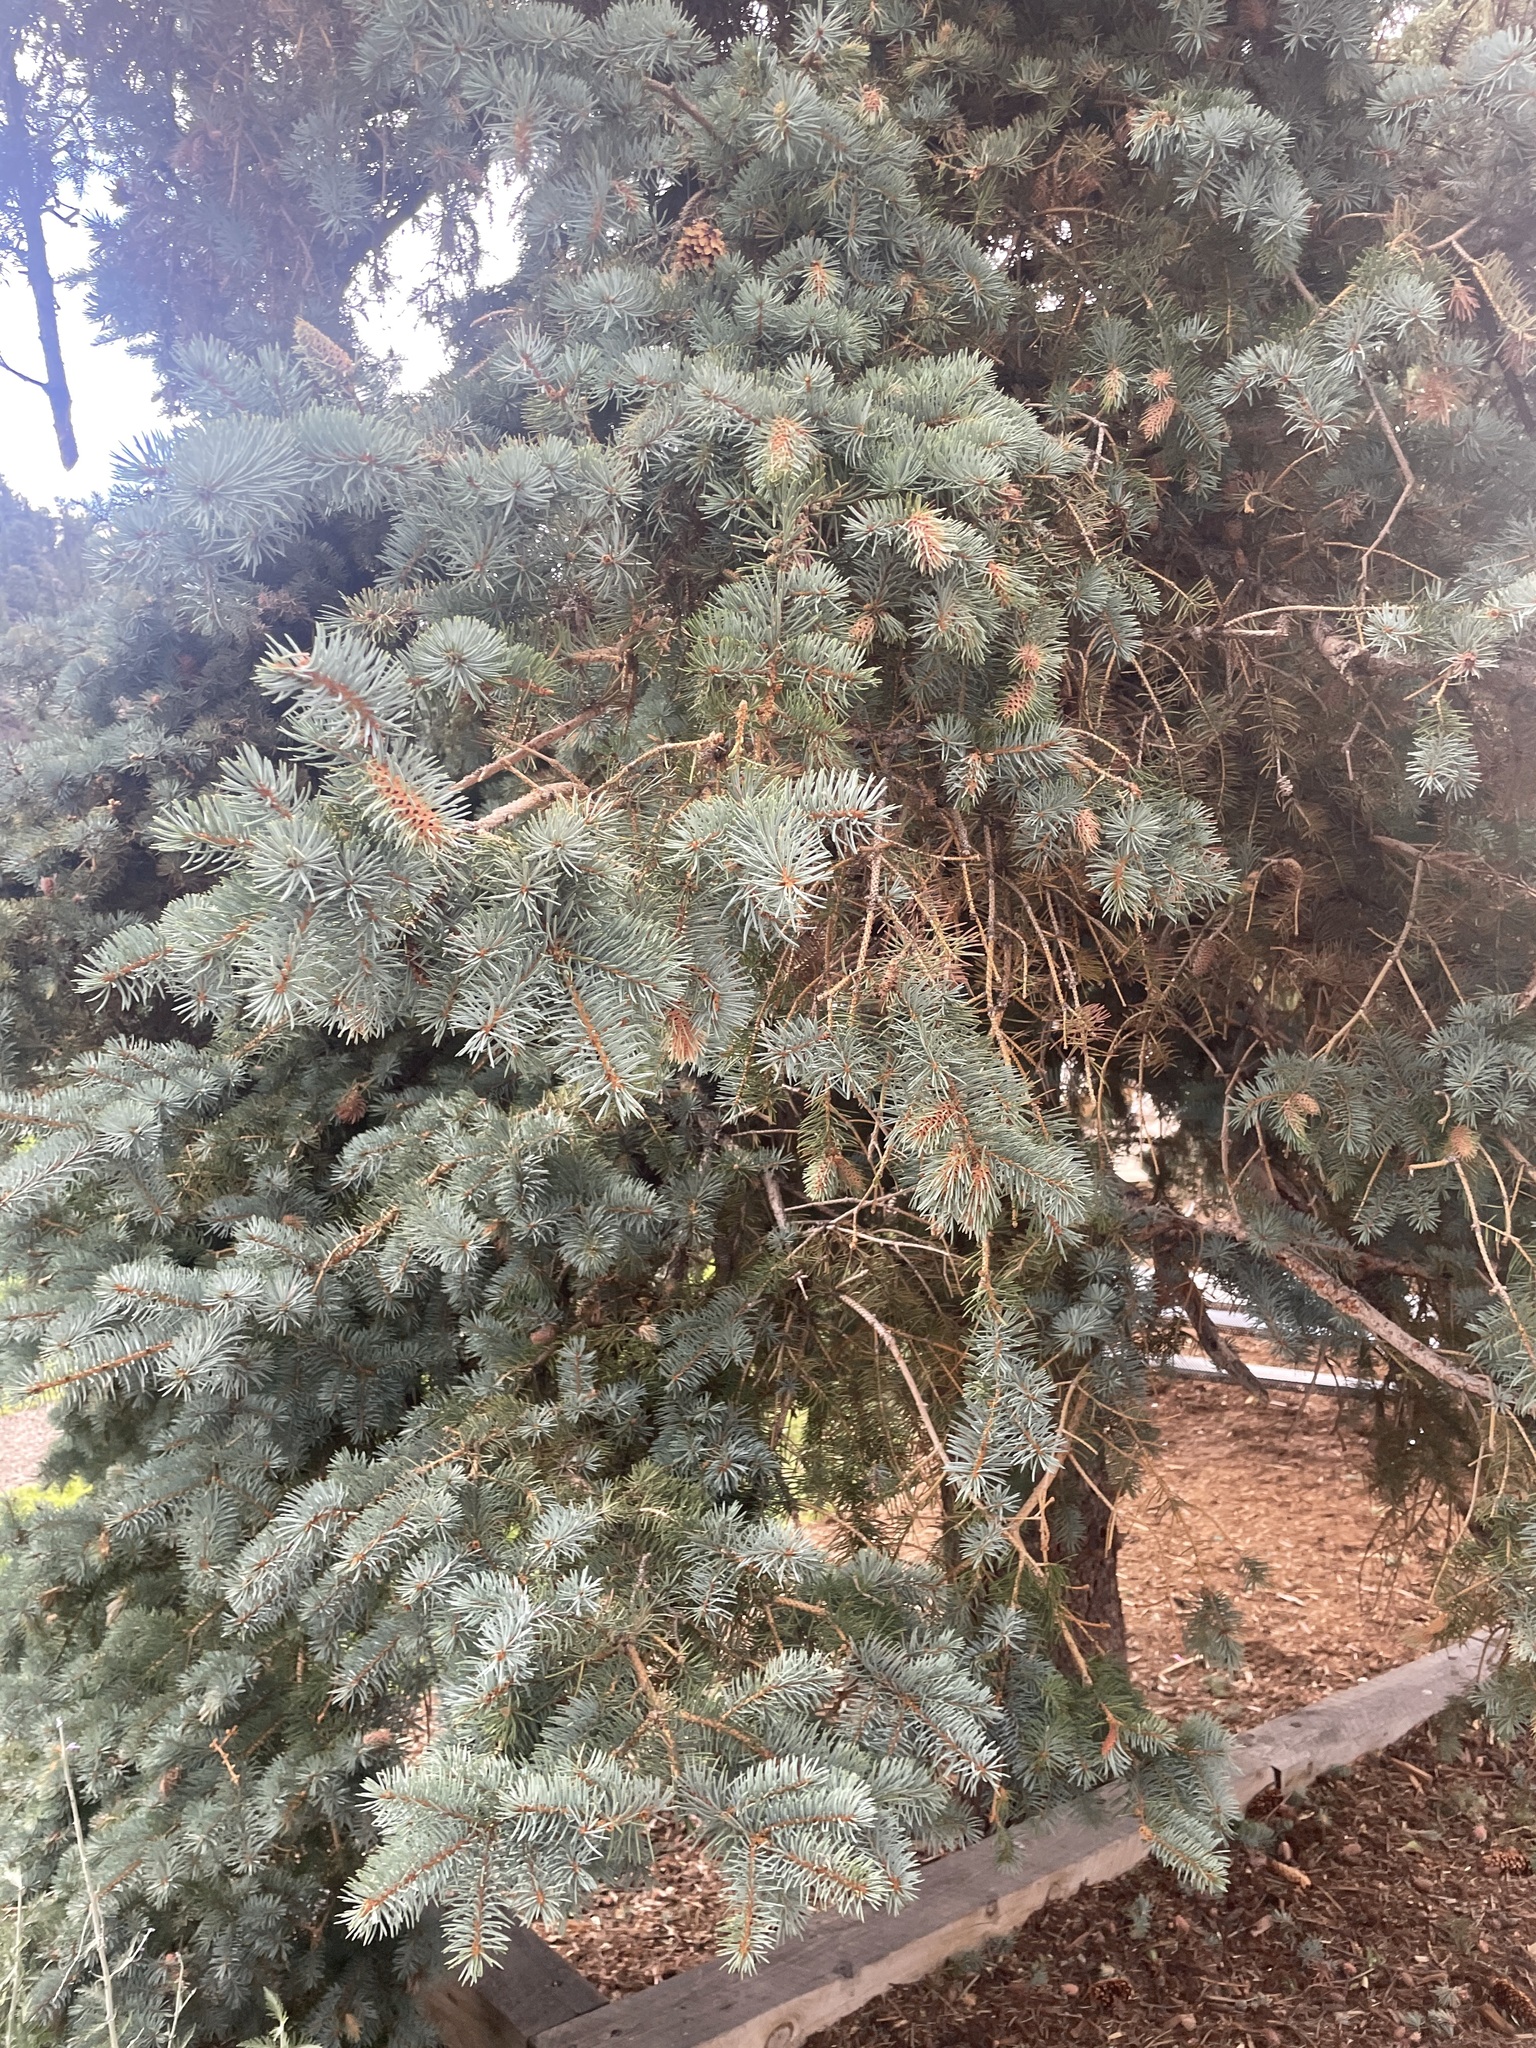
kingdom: Animalia
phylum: Arthropoda
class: Insecta
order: Hemiptera
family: Adelgidae
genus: Adelges
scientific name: Adelges cooleyi
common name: Cooley spruce gall adelgid
